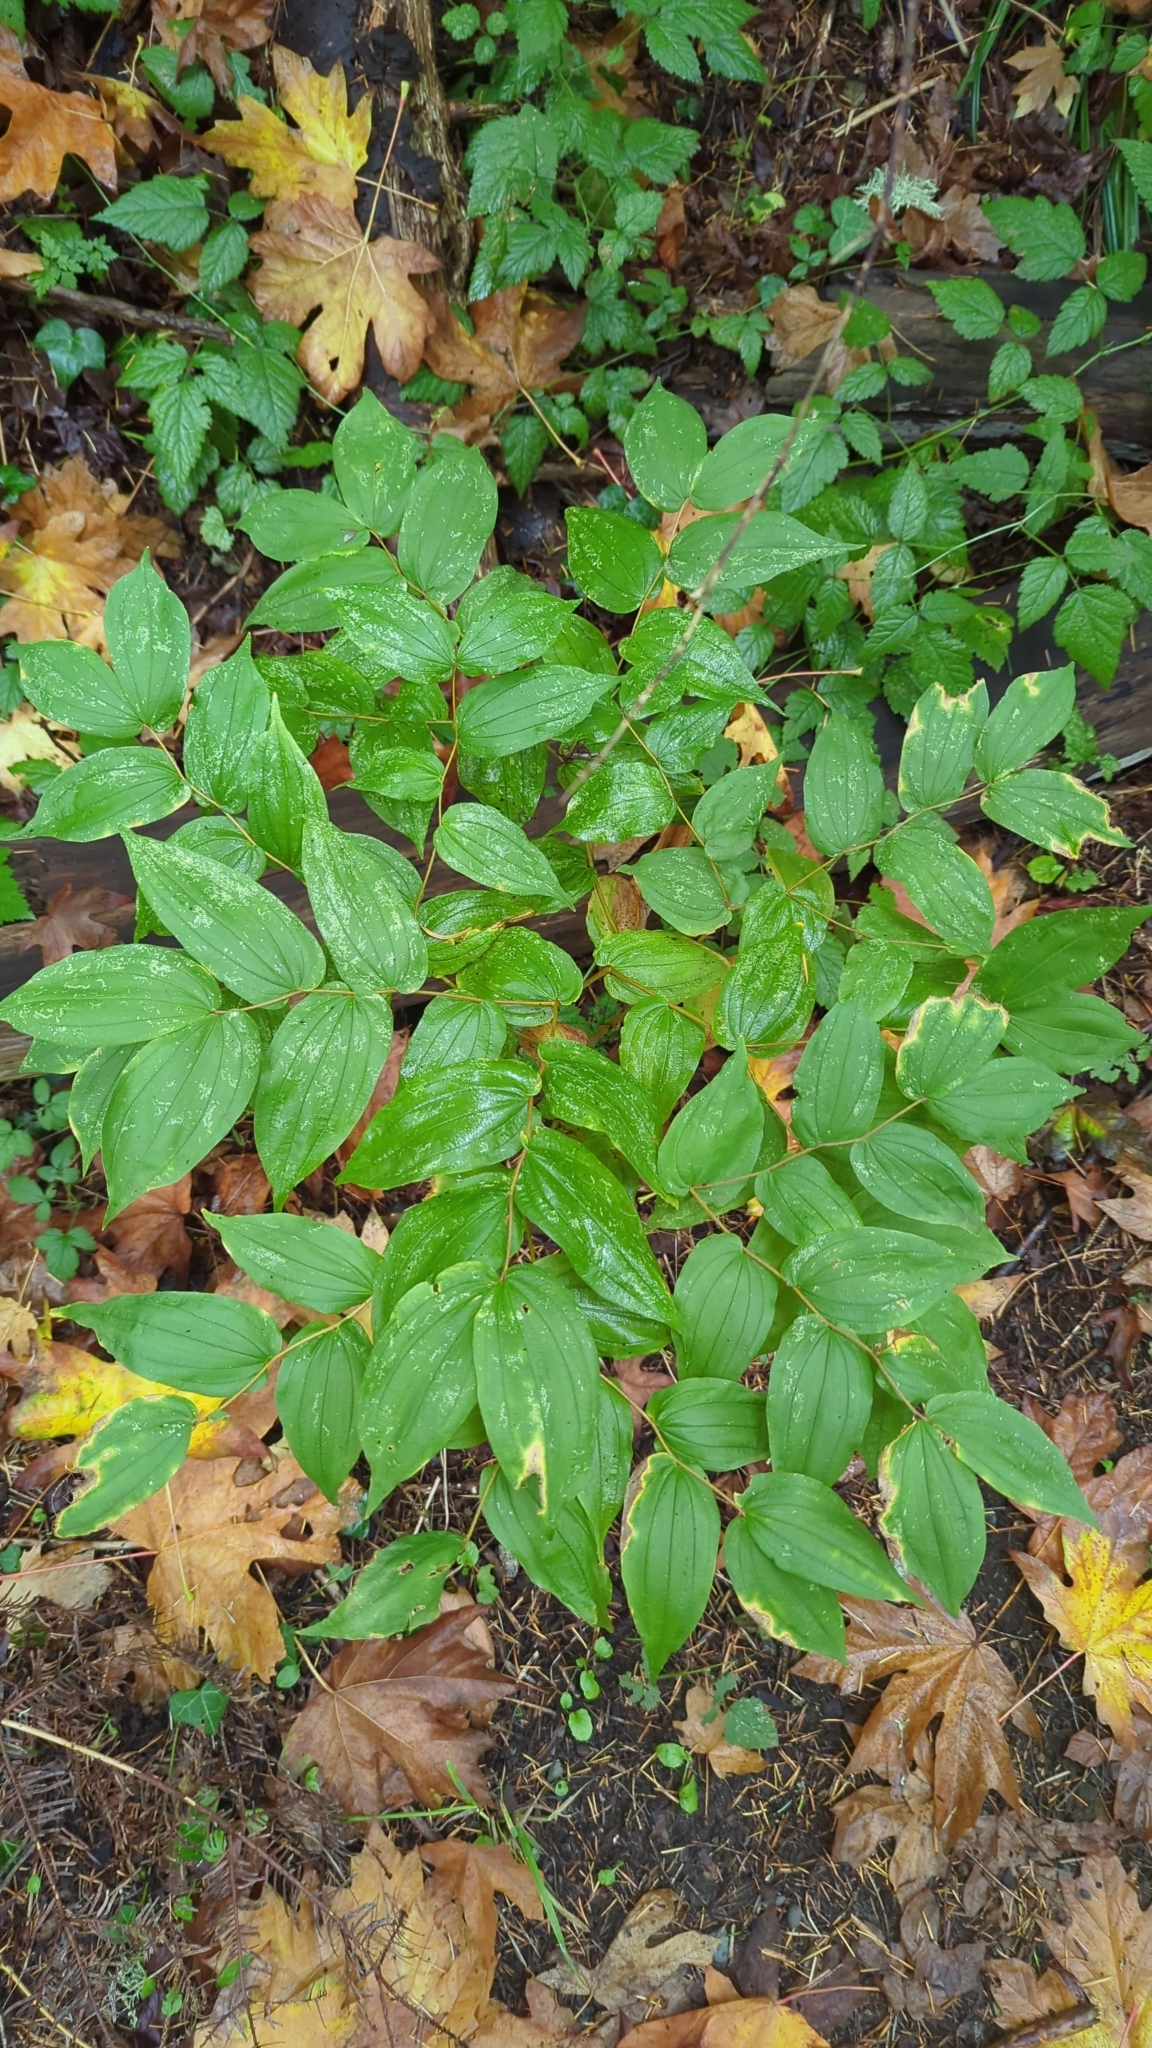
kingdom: Plantae
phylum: Tracheophyta
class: Liliopsida
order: Liliales
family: Liliaceae
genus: Prosartes
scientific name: Prosartes hookeri
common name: Fairy-bells
